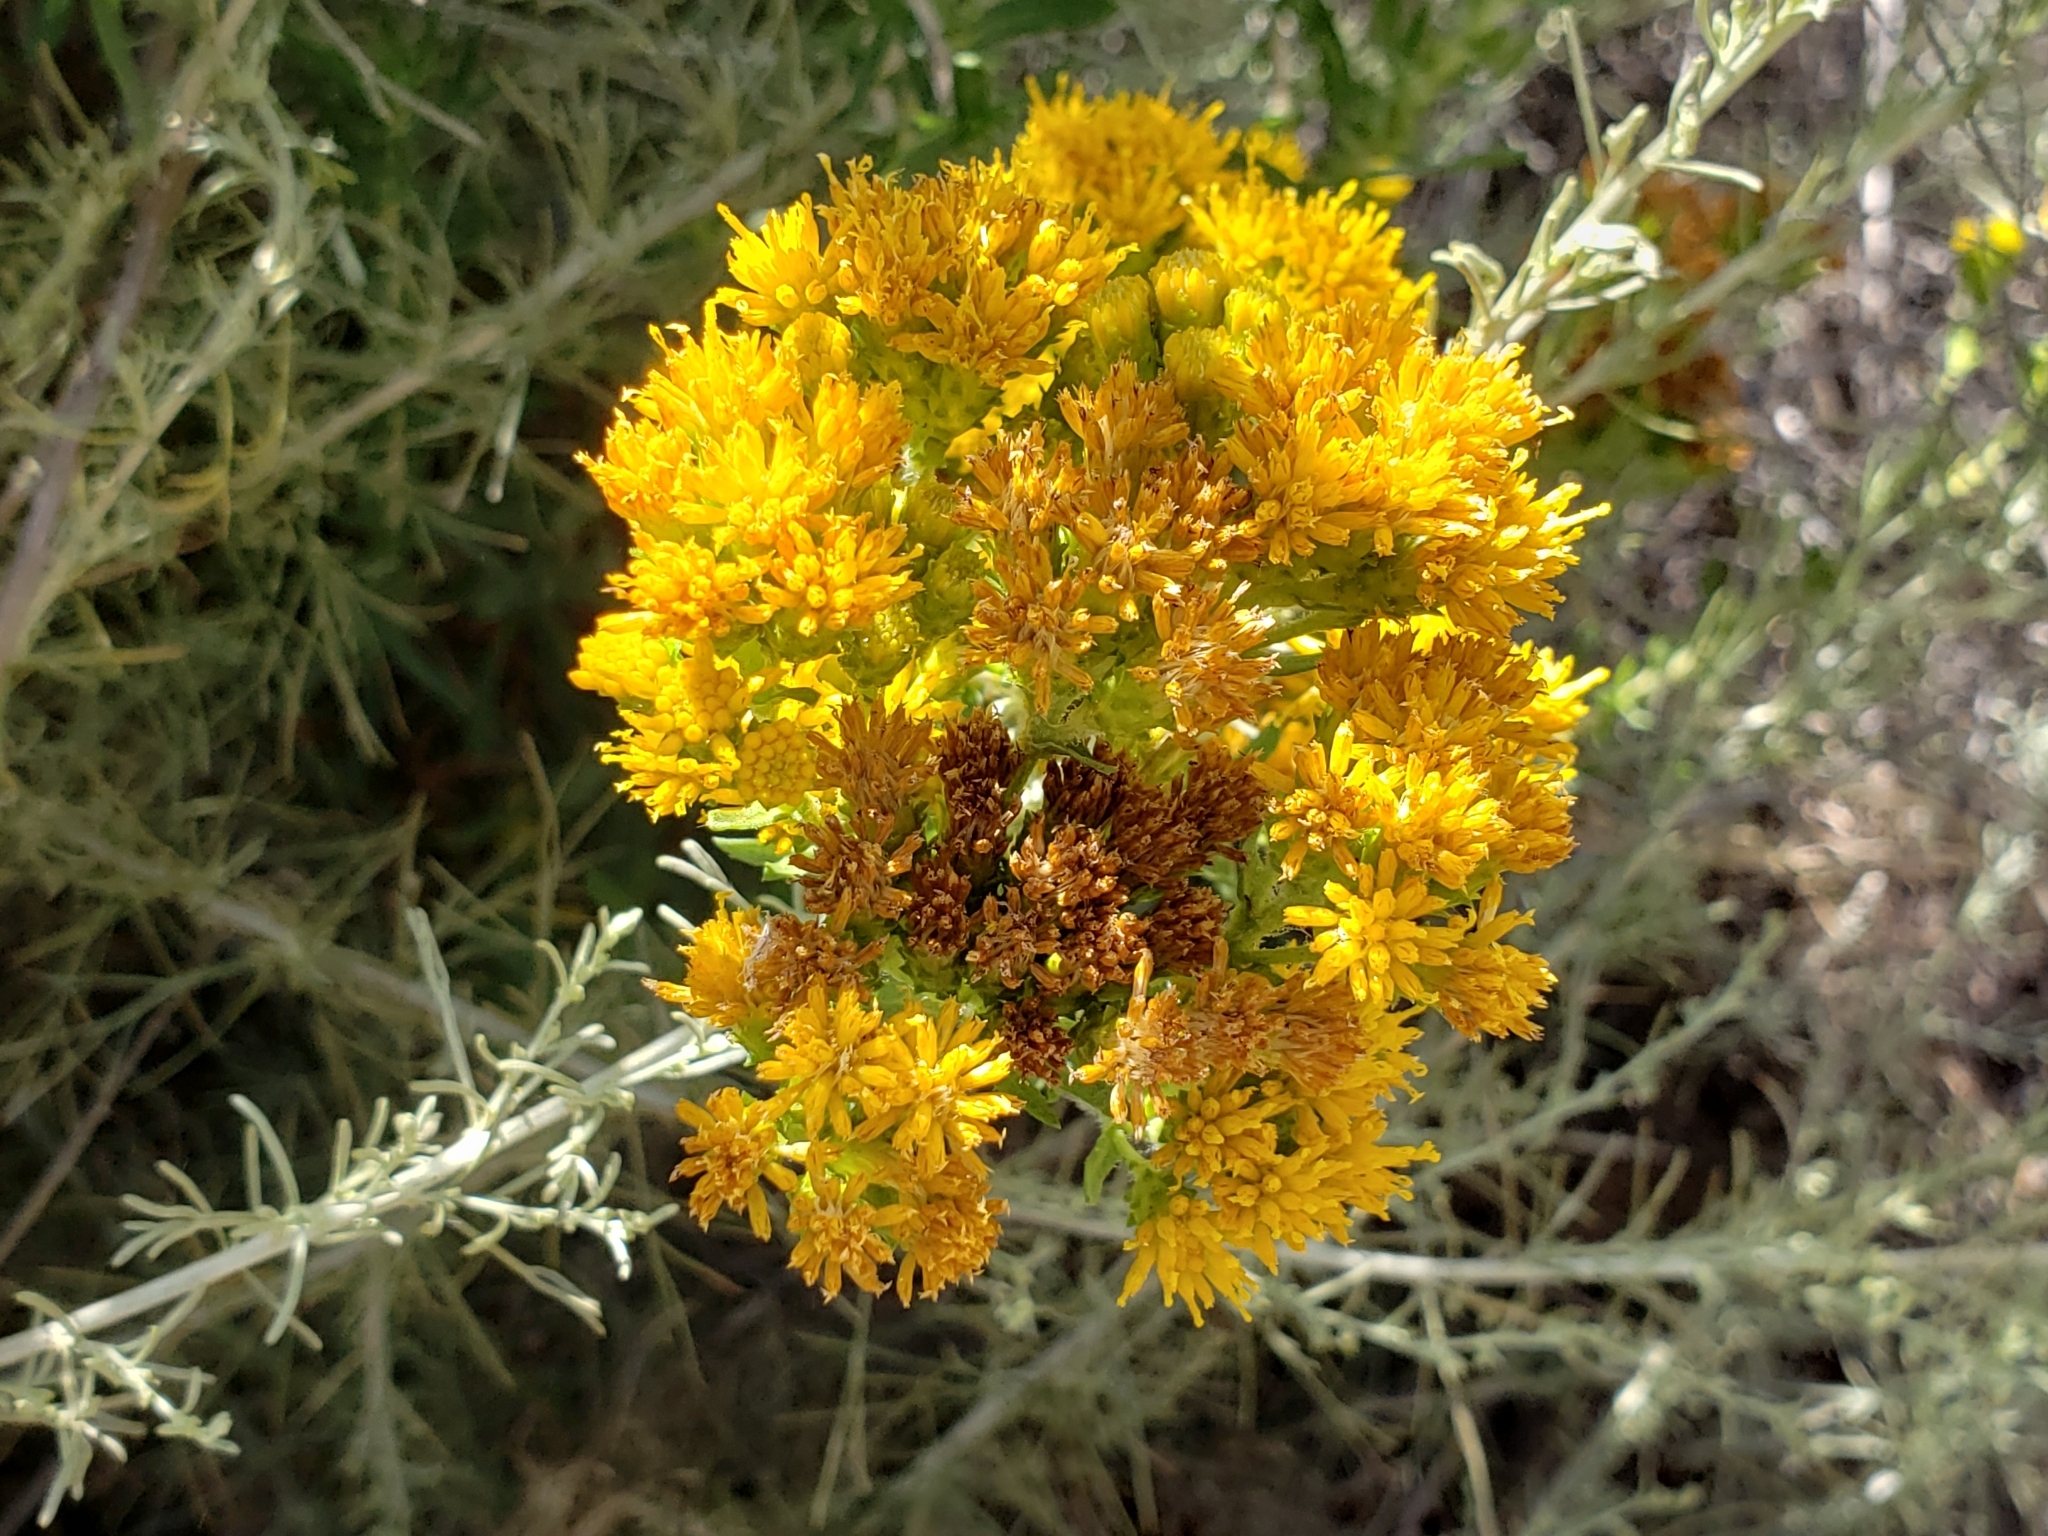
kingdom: Plantae
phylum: Tracheophyta
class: Magnoliopsida
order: Asterales
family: Asteraceae
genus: Isocoma
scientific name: Isocoma menziesii
